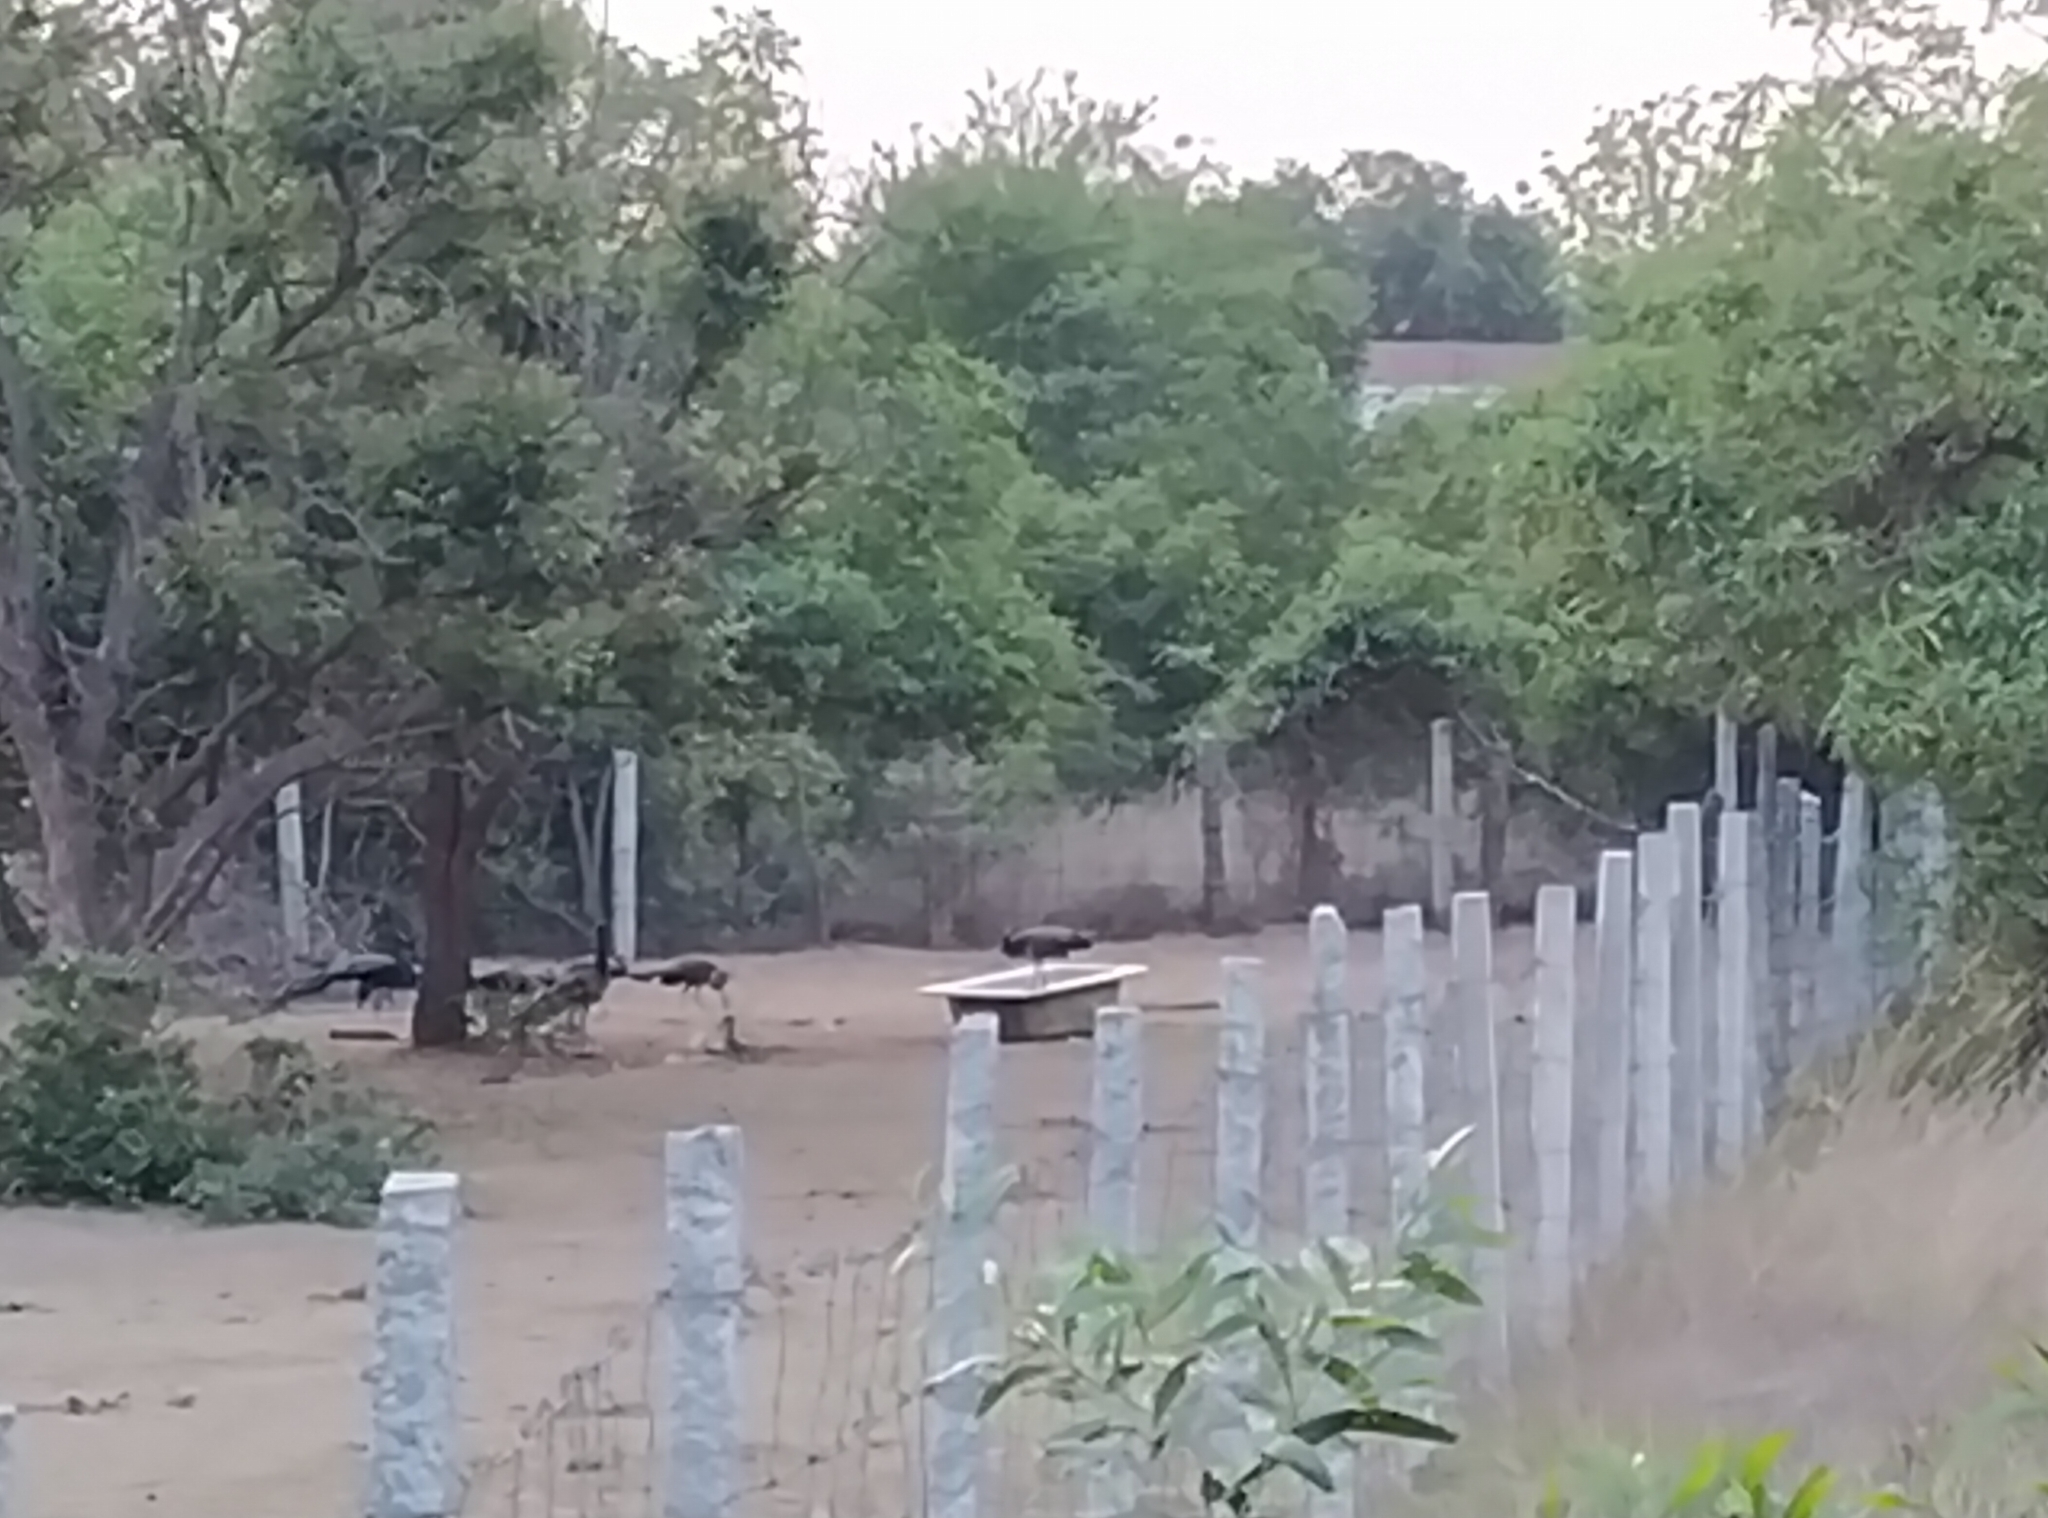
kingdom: Animalia
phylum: Chordata
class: Aves
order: Galliformes
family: Phasianidae
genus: Pavo
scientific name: Pavo cristatus
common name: Indian peafowl
